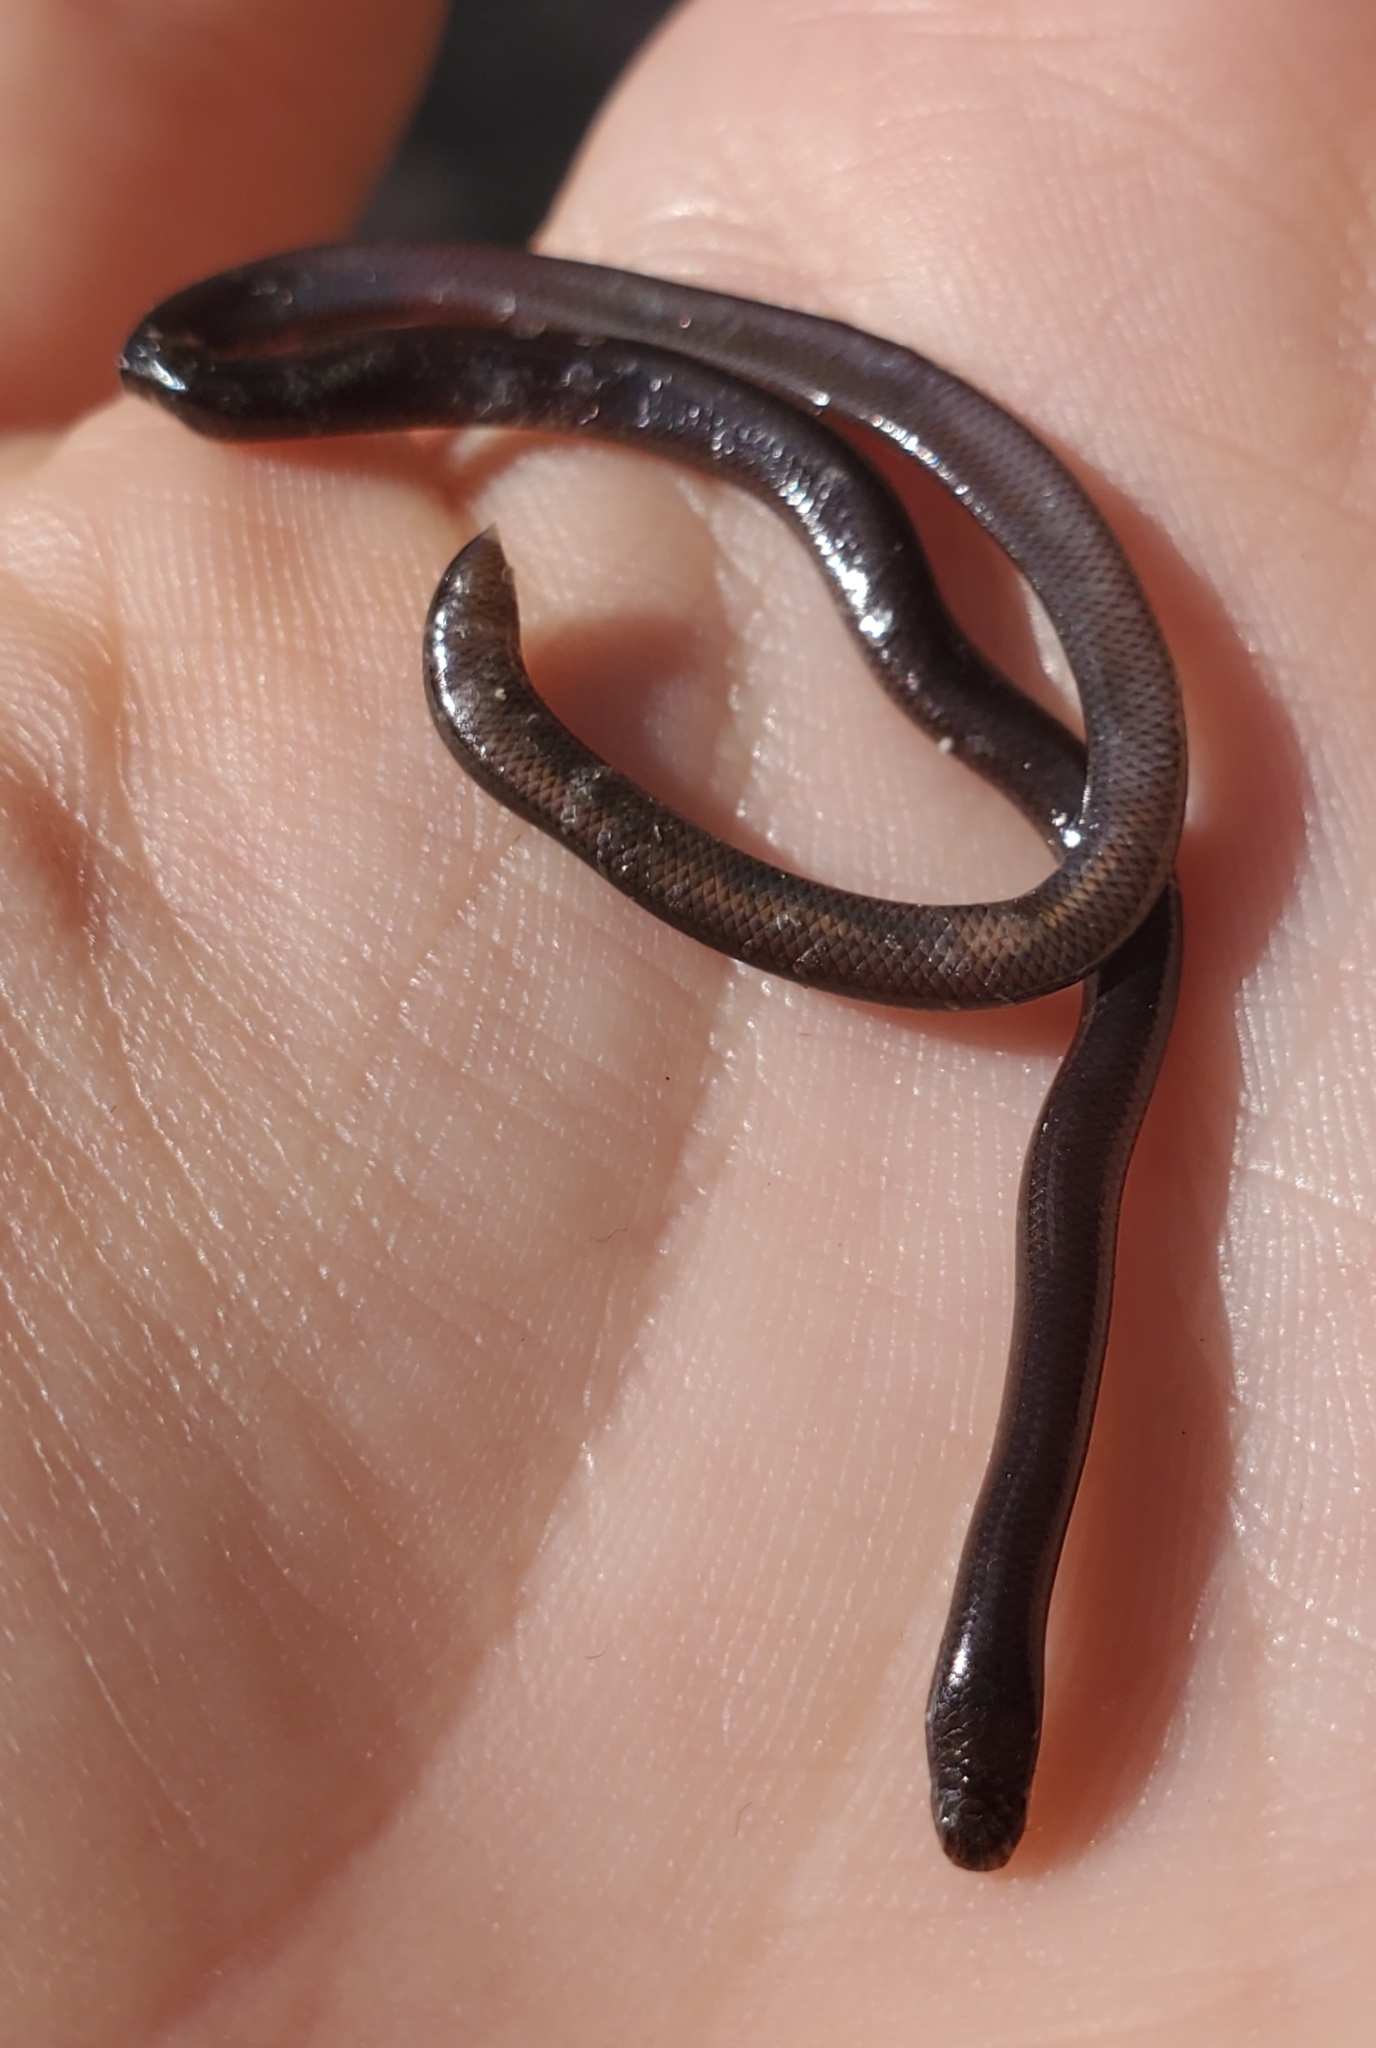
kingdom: Animalia
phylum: Chordata
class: Squamata
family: Typhlopidae
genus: Indotyphlops
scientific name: Indotyphlops braminus
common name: Brahminy blindsnake
